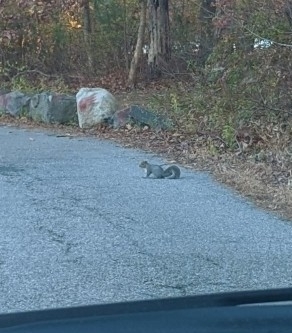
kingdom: Animalia
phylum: Chordata
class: Mammalia
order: Rodentia
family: Sciuridae
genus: Sciurus
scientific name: Sciurus carolinensis
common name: Eastern gray squirrel
